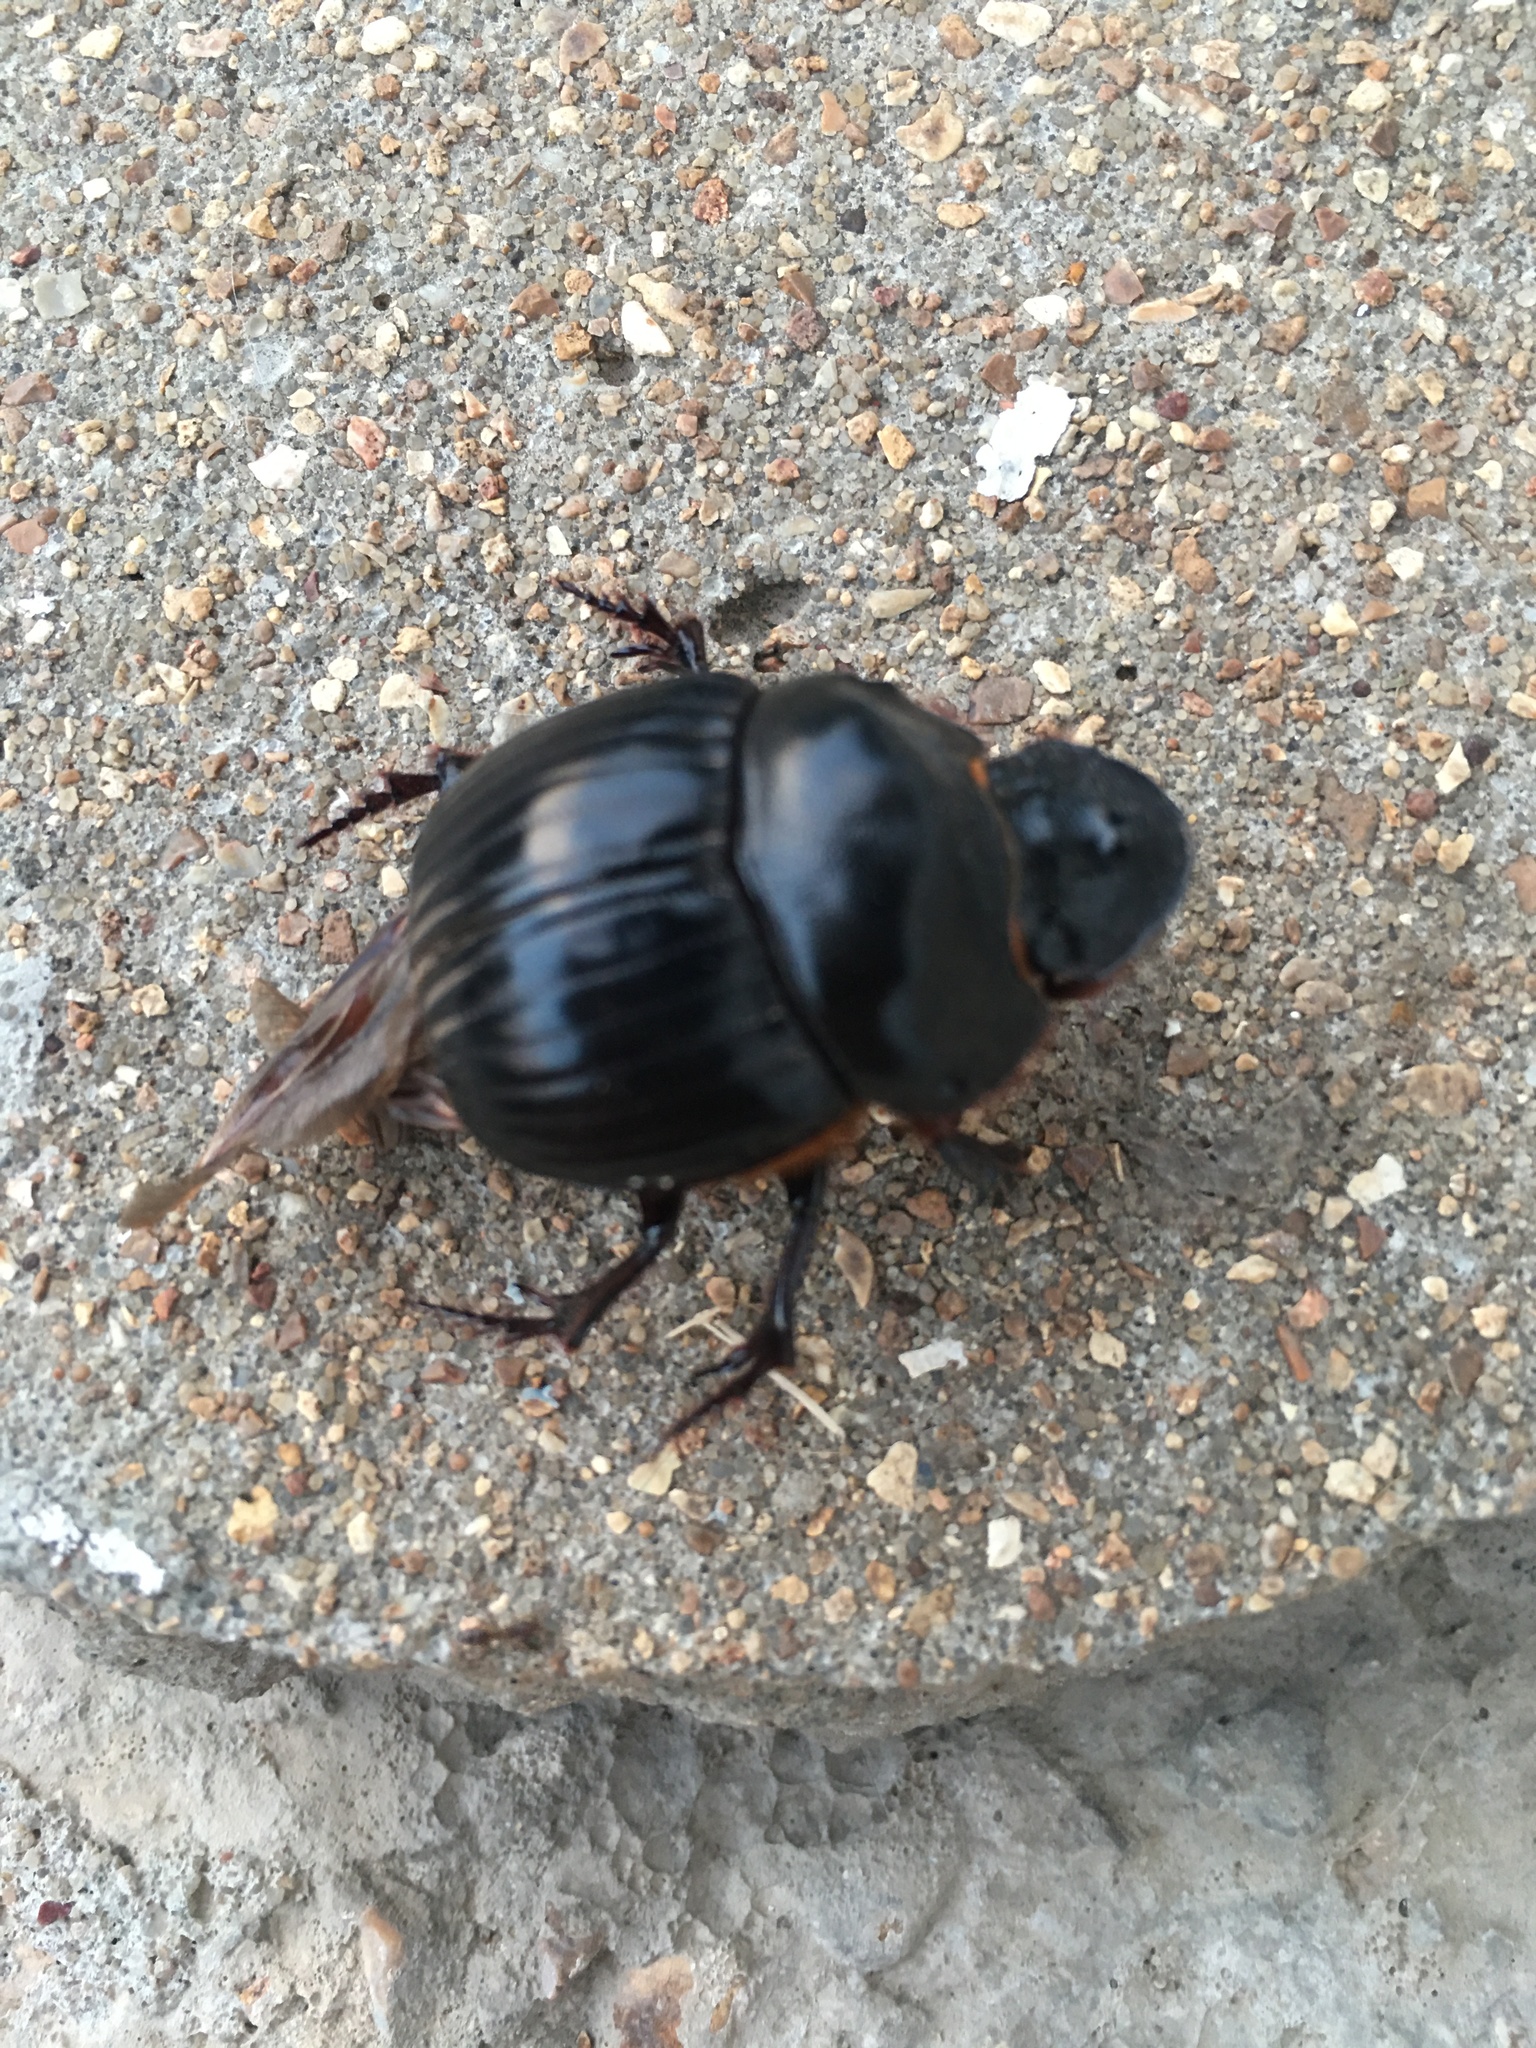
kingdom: Animalia
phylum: Arthropoda
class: Insecta
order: Coleoptera
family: Scarabaeidae
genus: Dichotomius
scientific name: Dichotomius carolinus
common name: Carolina copris
